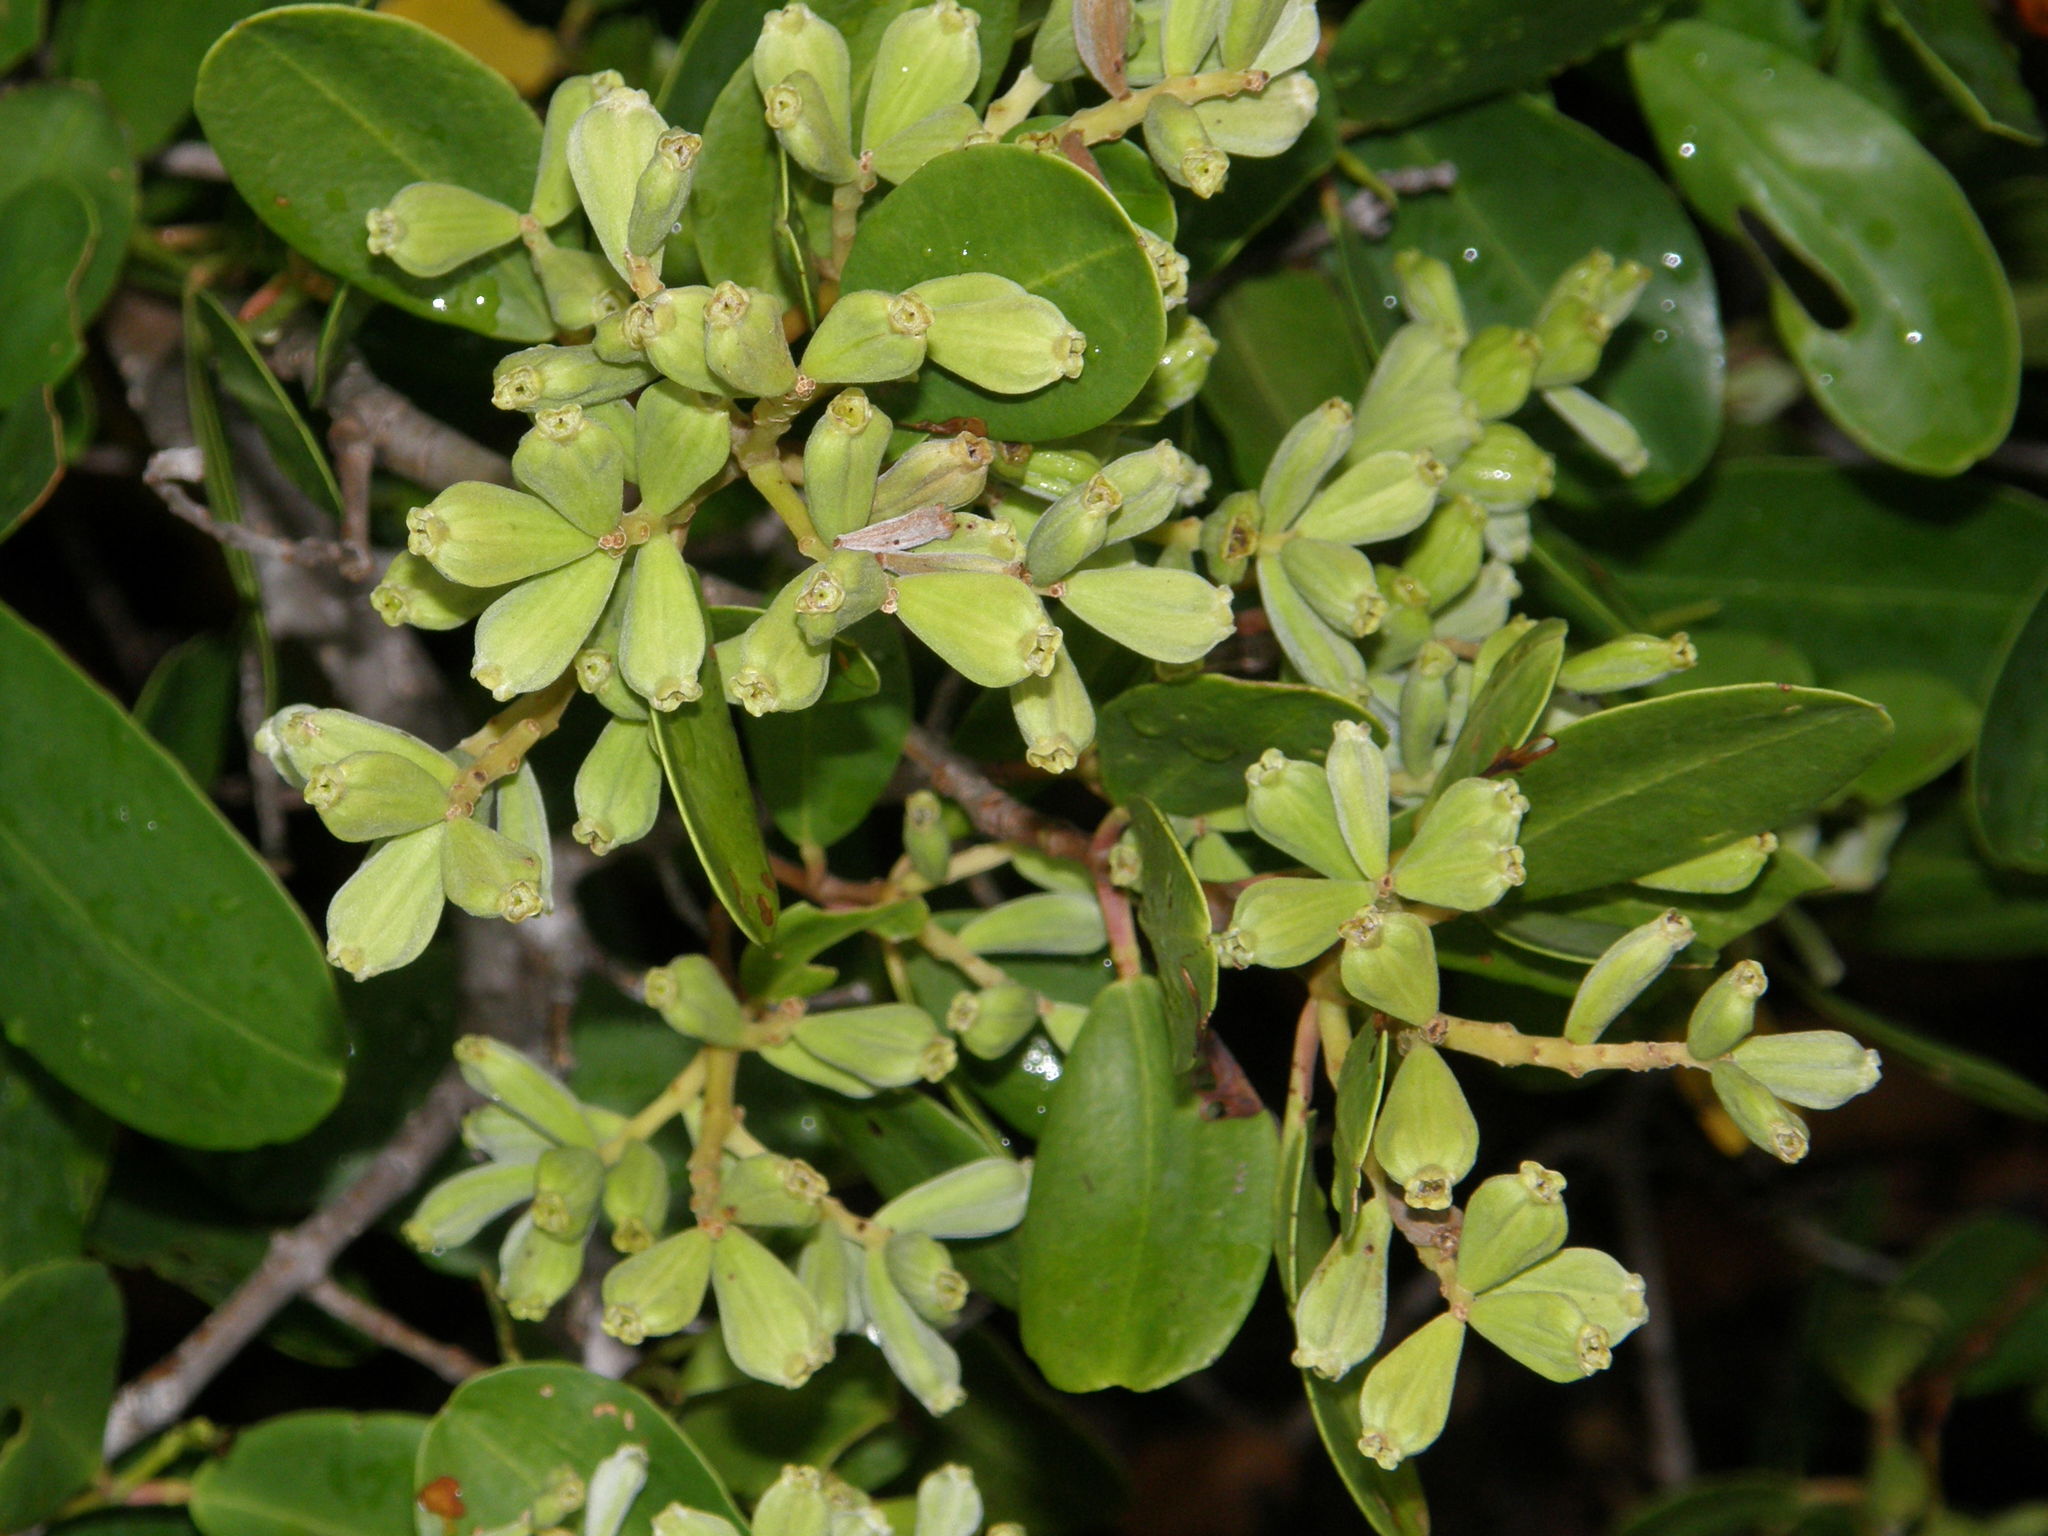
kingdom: Plantae
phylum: Tracheophyta
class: Magnoliopsida
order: Myrtales
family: Combretaceae
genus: Laguncularia
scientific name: Laguncularia racemosa
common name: White mangrove
